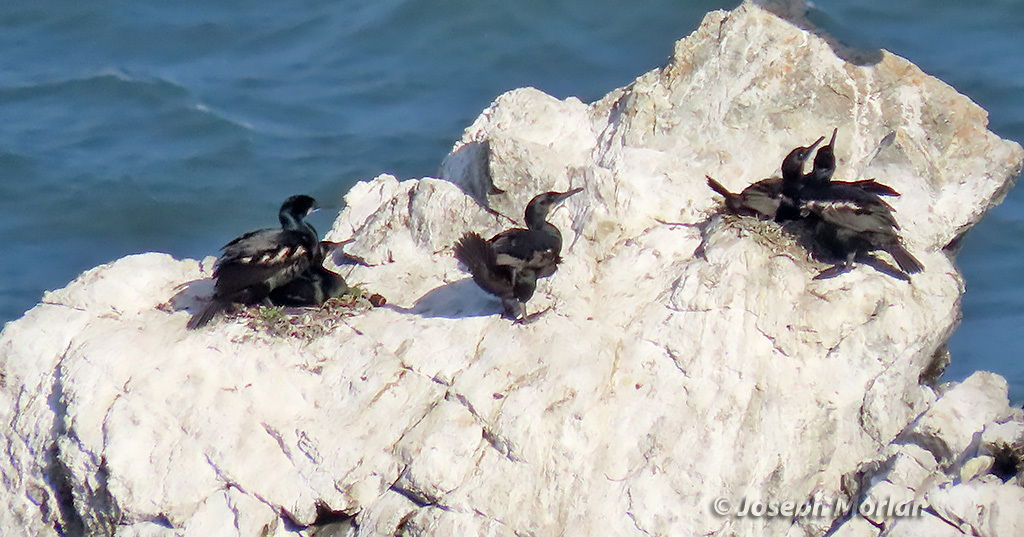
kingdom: Animalia
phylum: Chordata
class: Aves
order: Suliformes
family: Phalacrocoracidae
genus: Urile
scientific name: Urile penicillatus
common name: Brandt's cormorant
